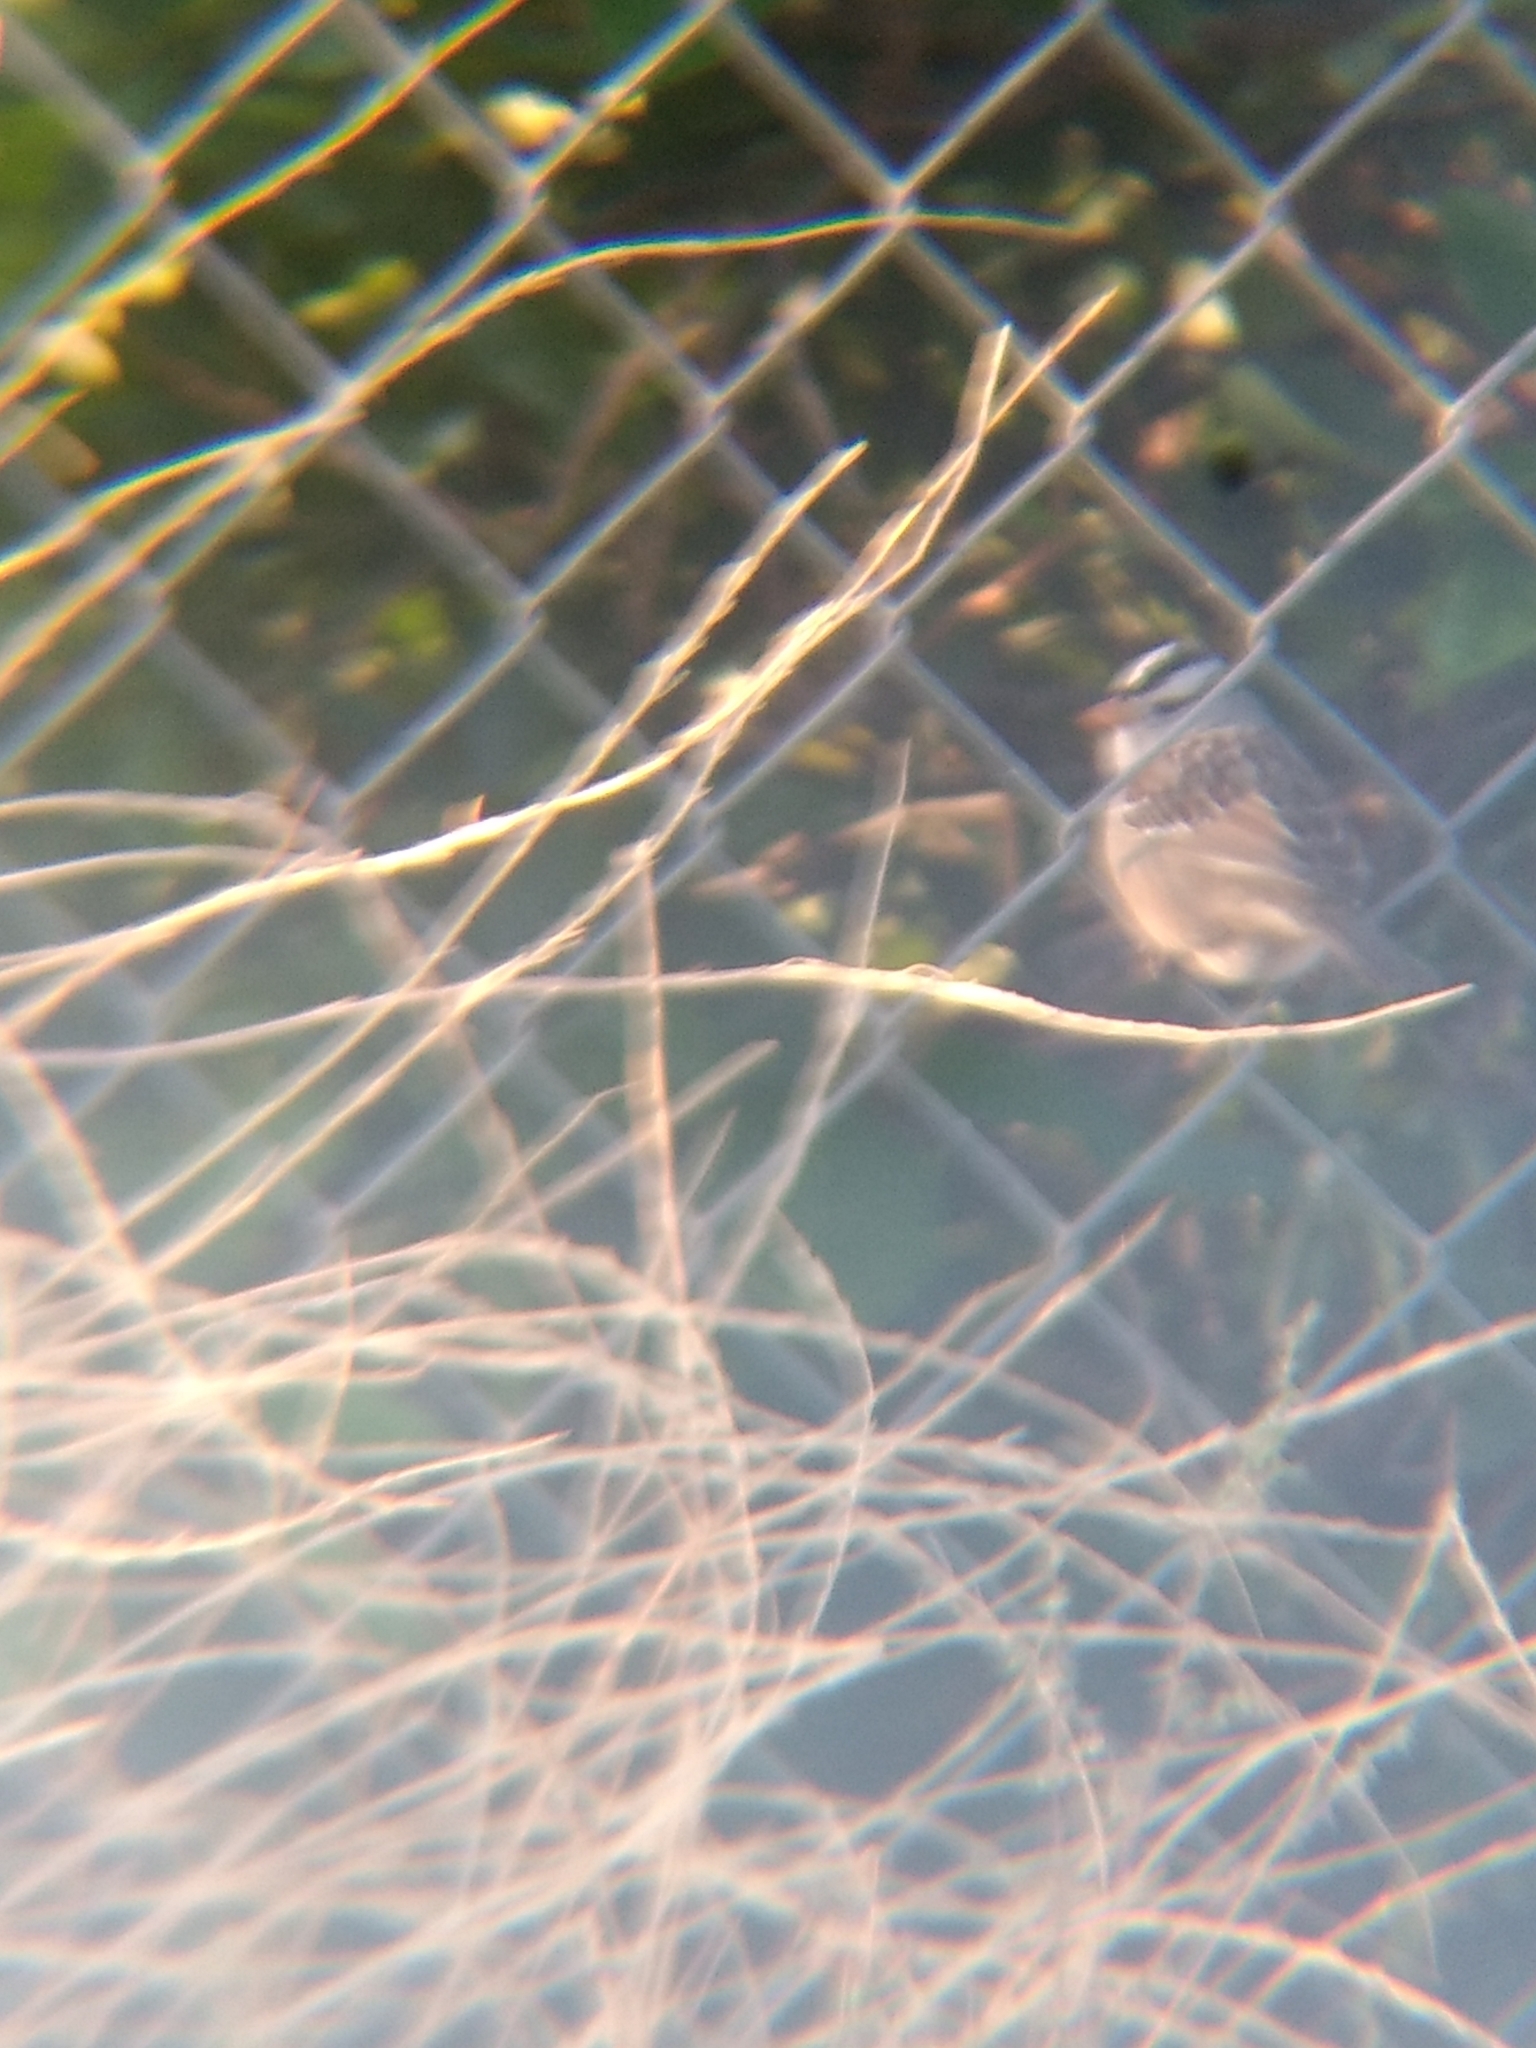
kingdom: Animalia
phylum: Chordata
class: Aves
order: Passeriformes
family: Passerellidae
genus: Zonotrichia
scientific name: Zonotrichia leucophrys
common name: White-crowned sparrow
